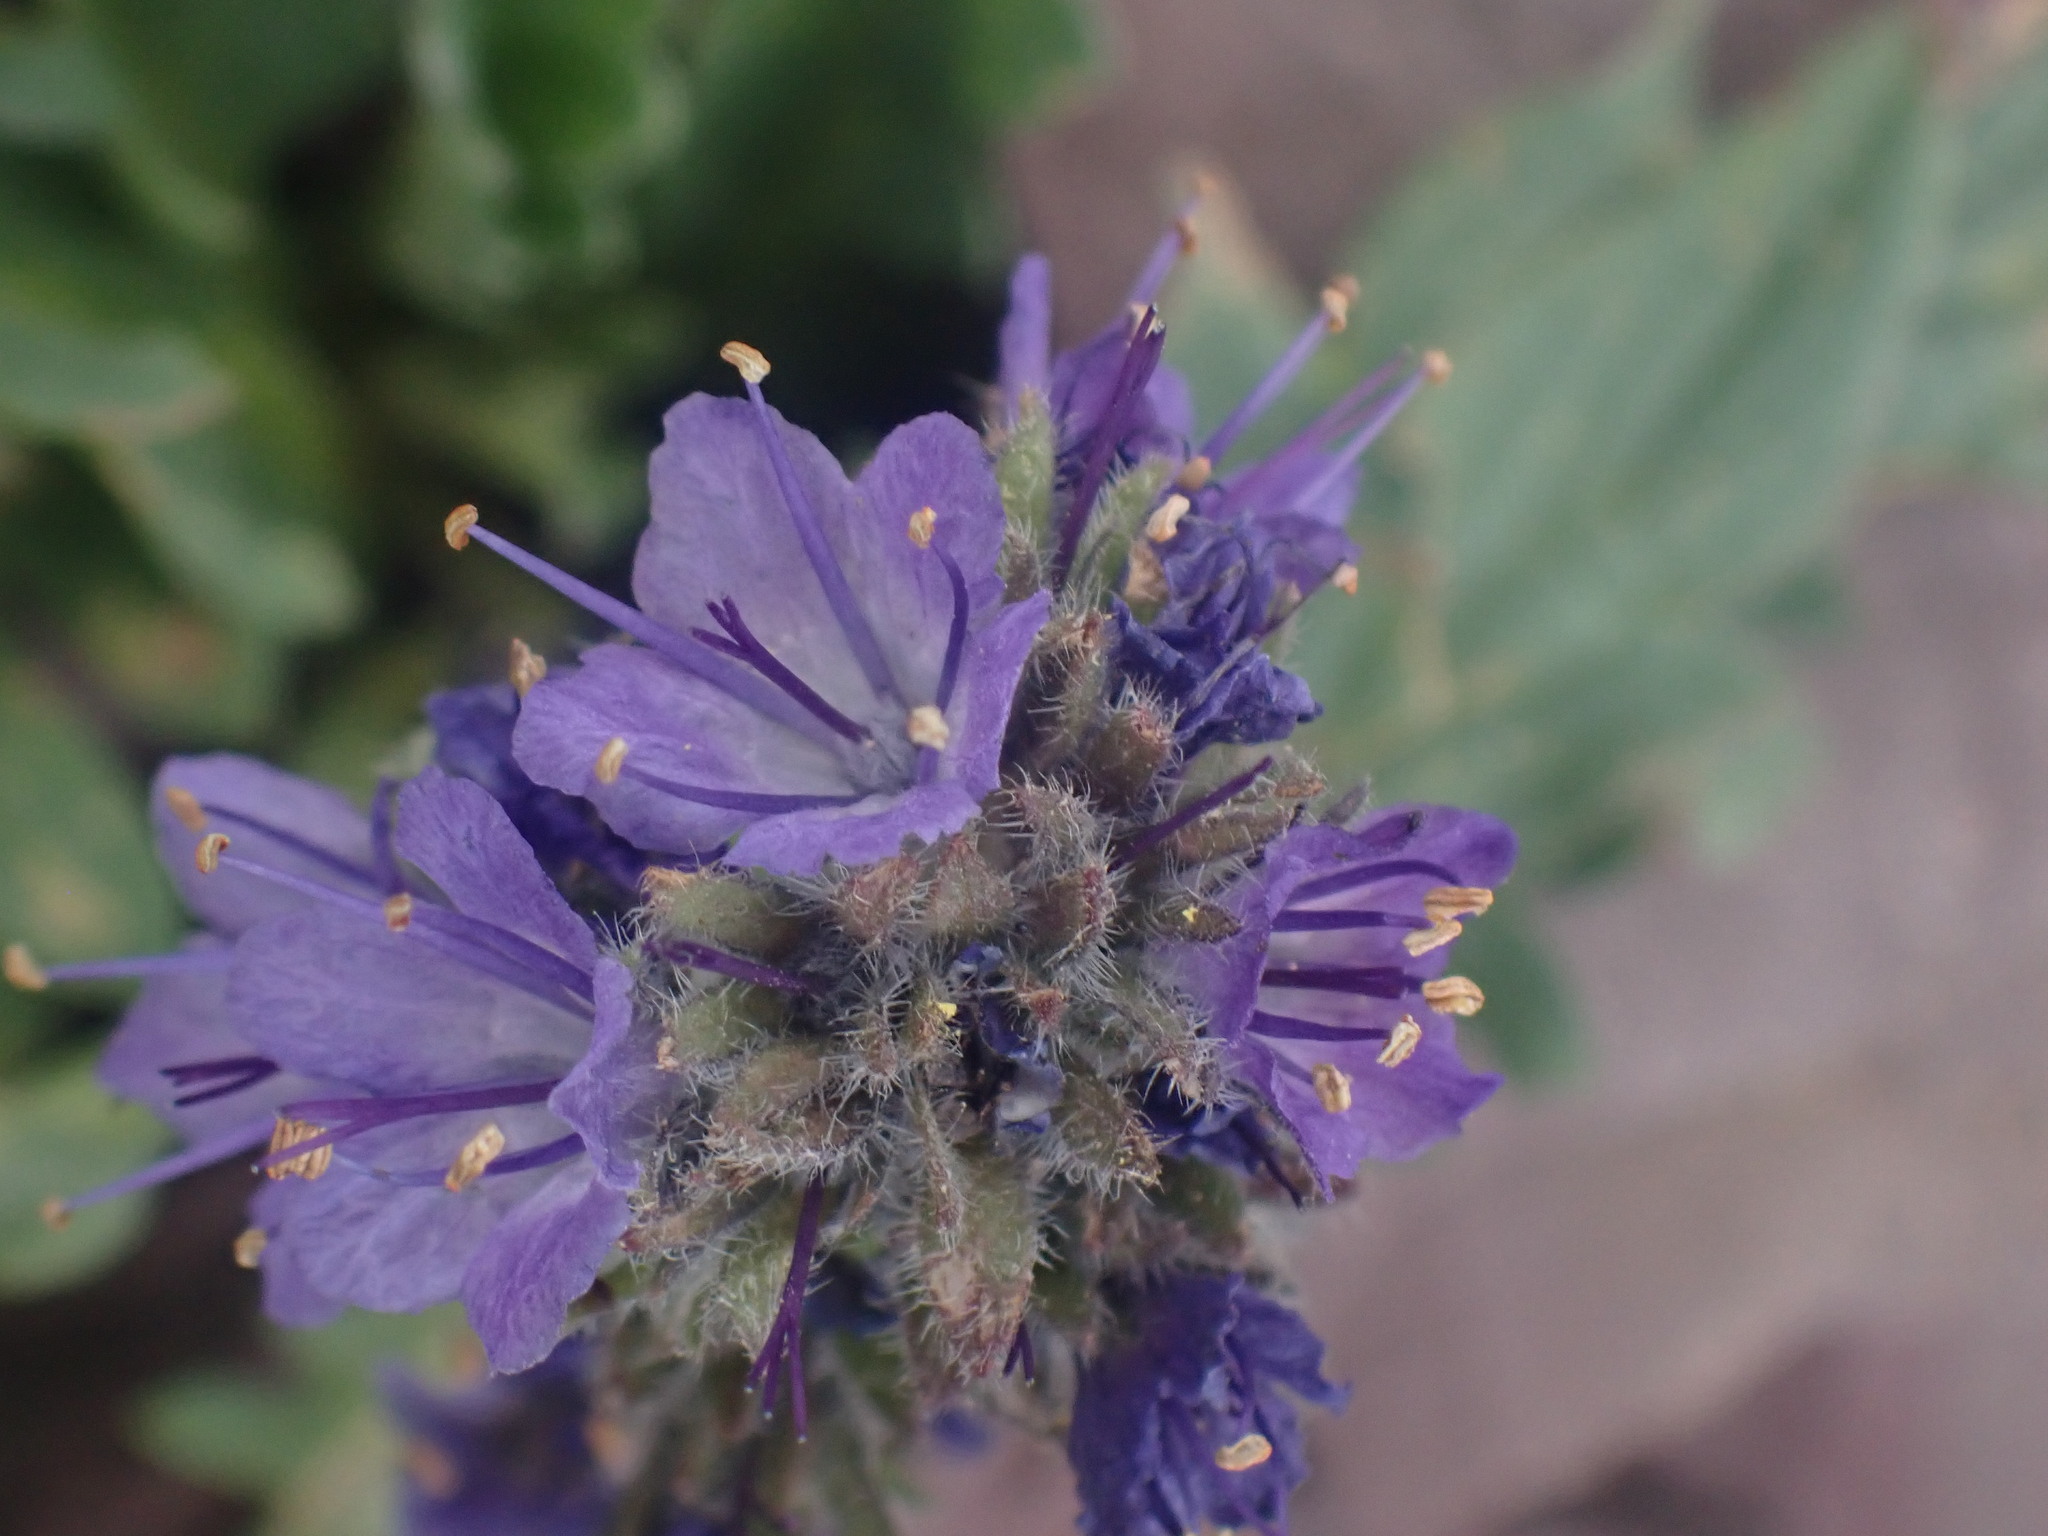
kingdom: Plantae
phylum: Tracheophyta
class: Magnoliopsida
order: Boraginales
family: Hydrophyllaceae
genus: Phacelia
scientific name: Phacelia lyallii
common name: Lyall's phacelia
